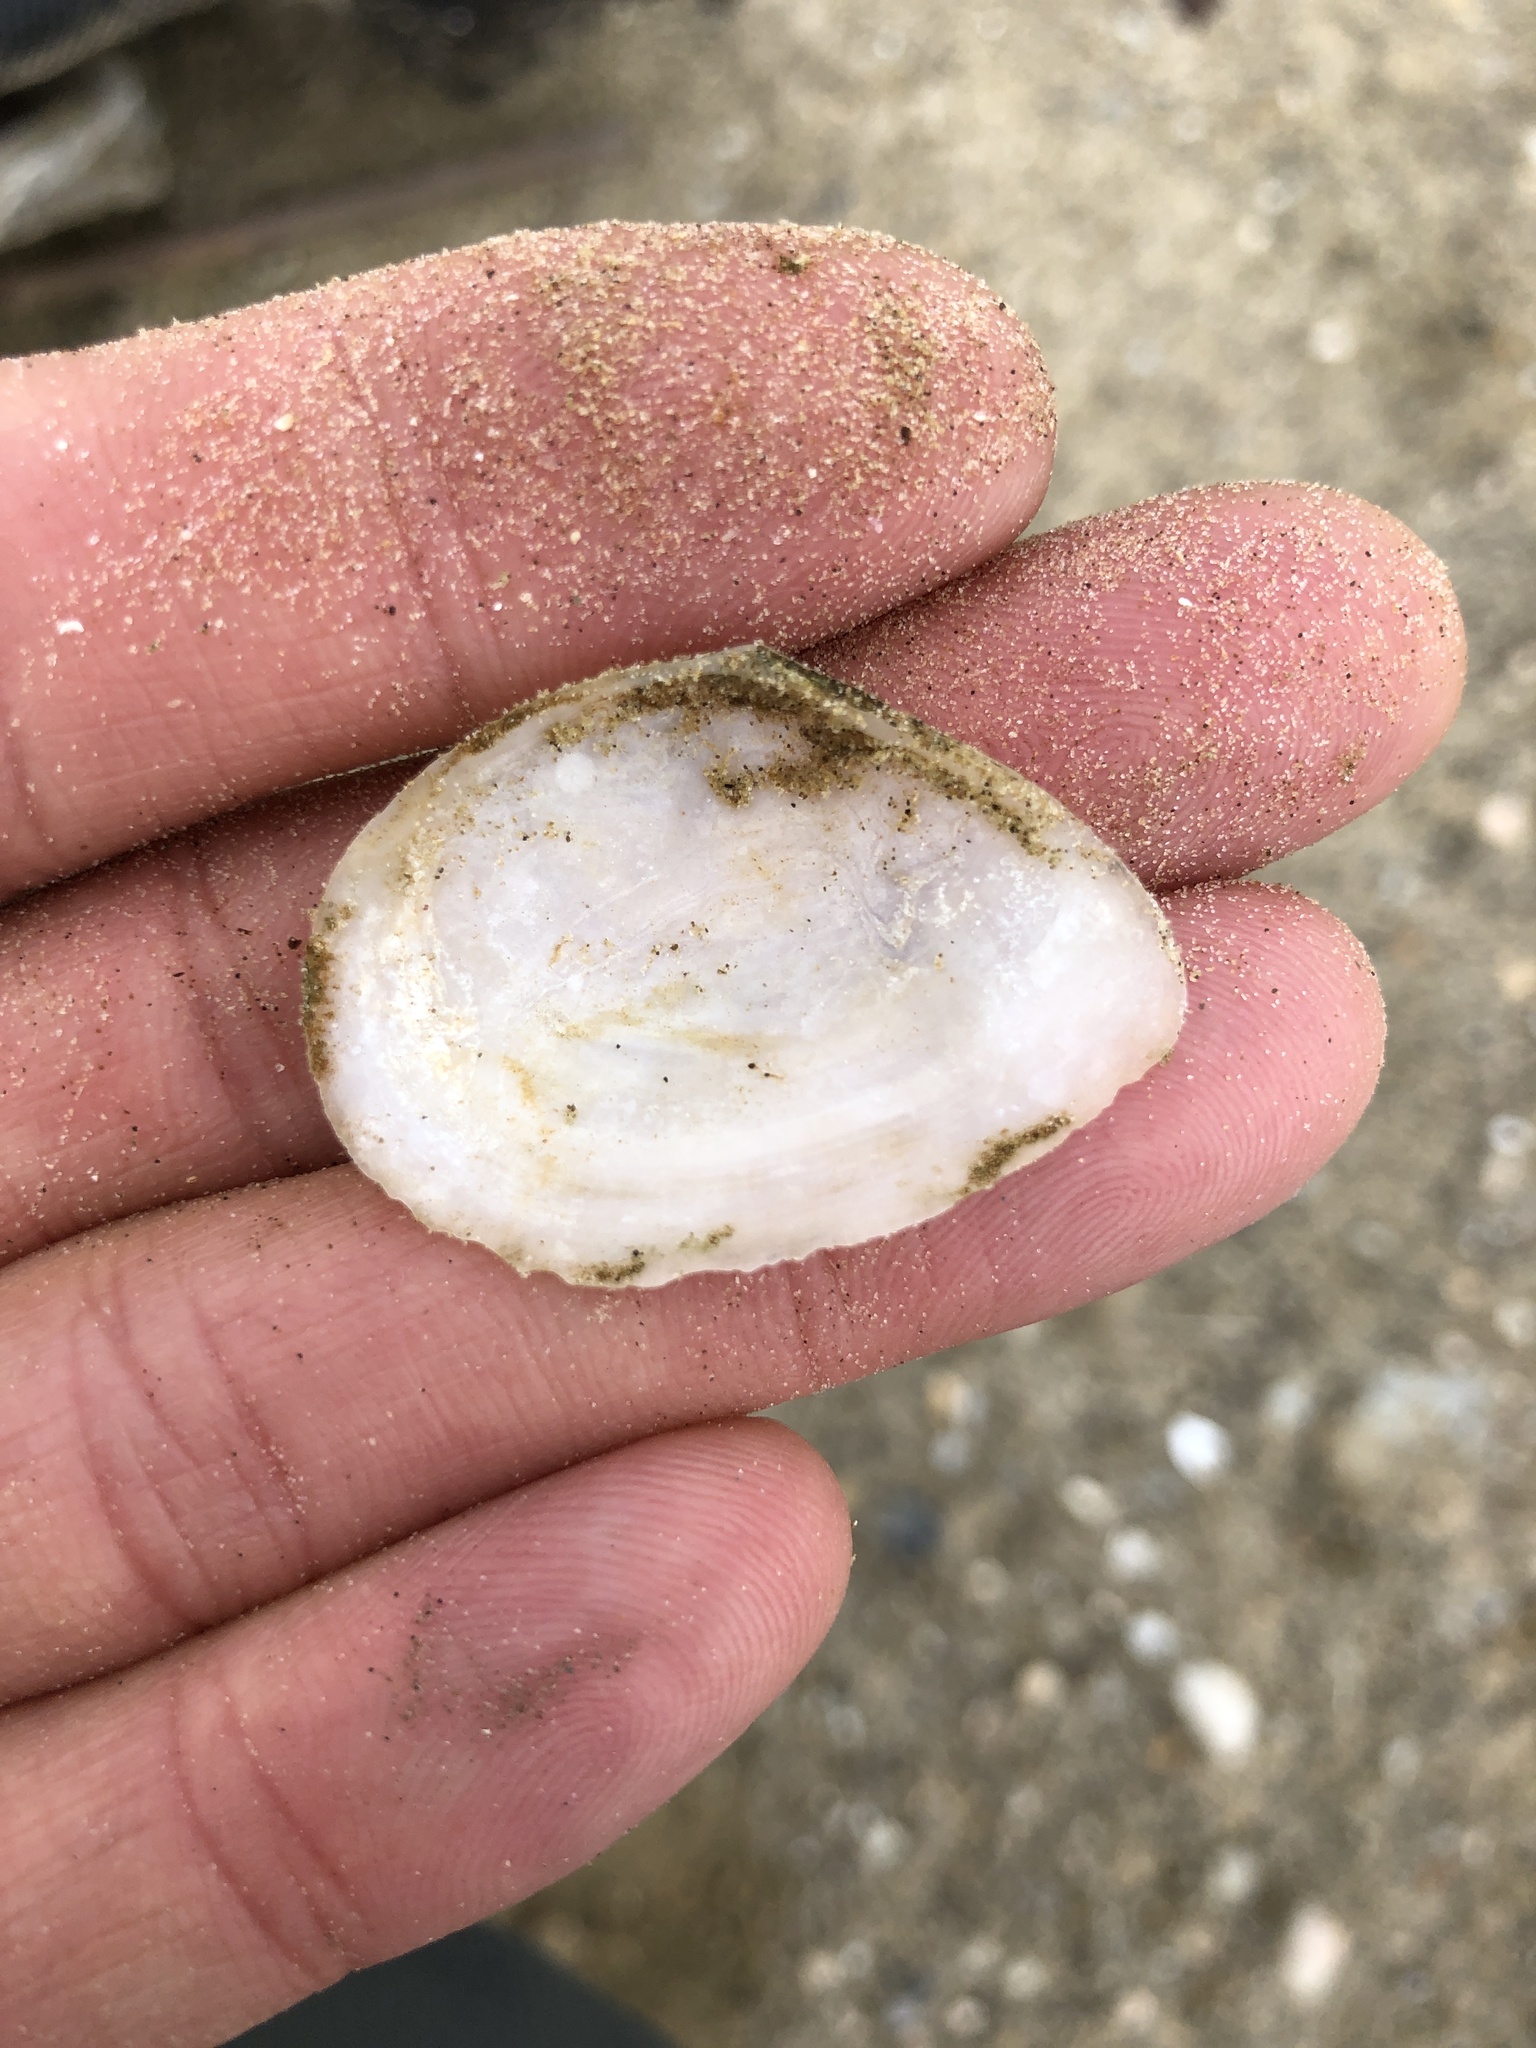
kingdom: Animalia
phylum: Mollusca
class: Bivalvia
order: Cardiida
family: Tellinidae
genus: Austromacoma
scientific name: Austromacoma constricta
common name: Constricted macoma
